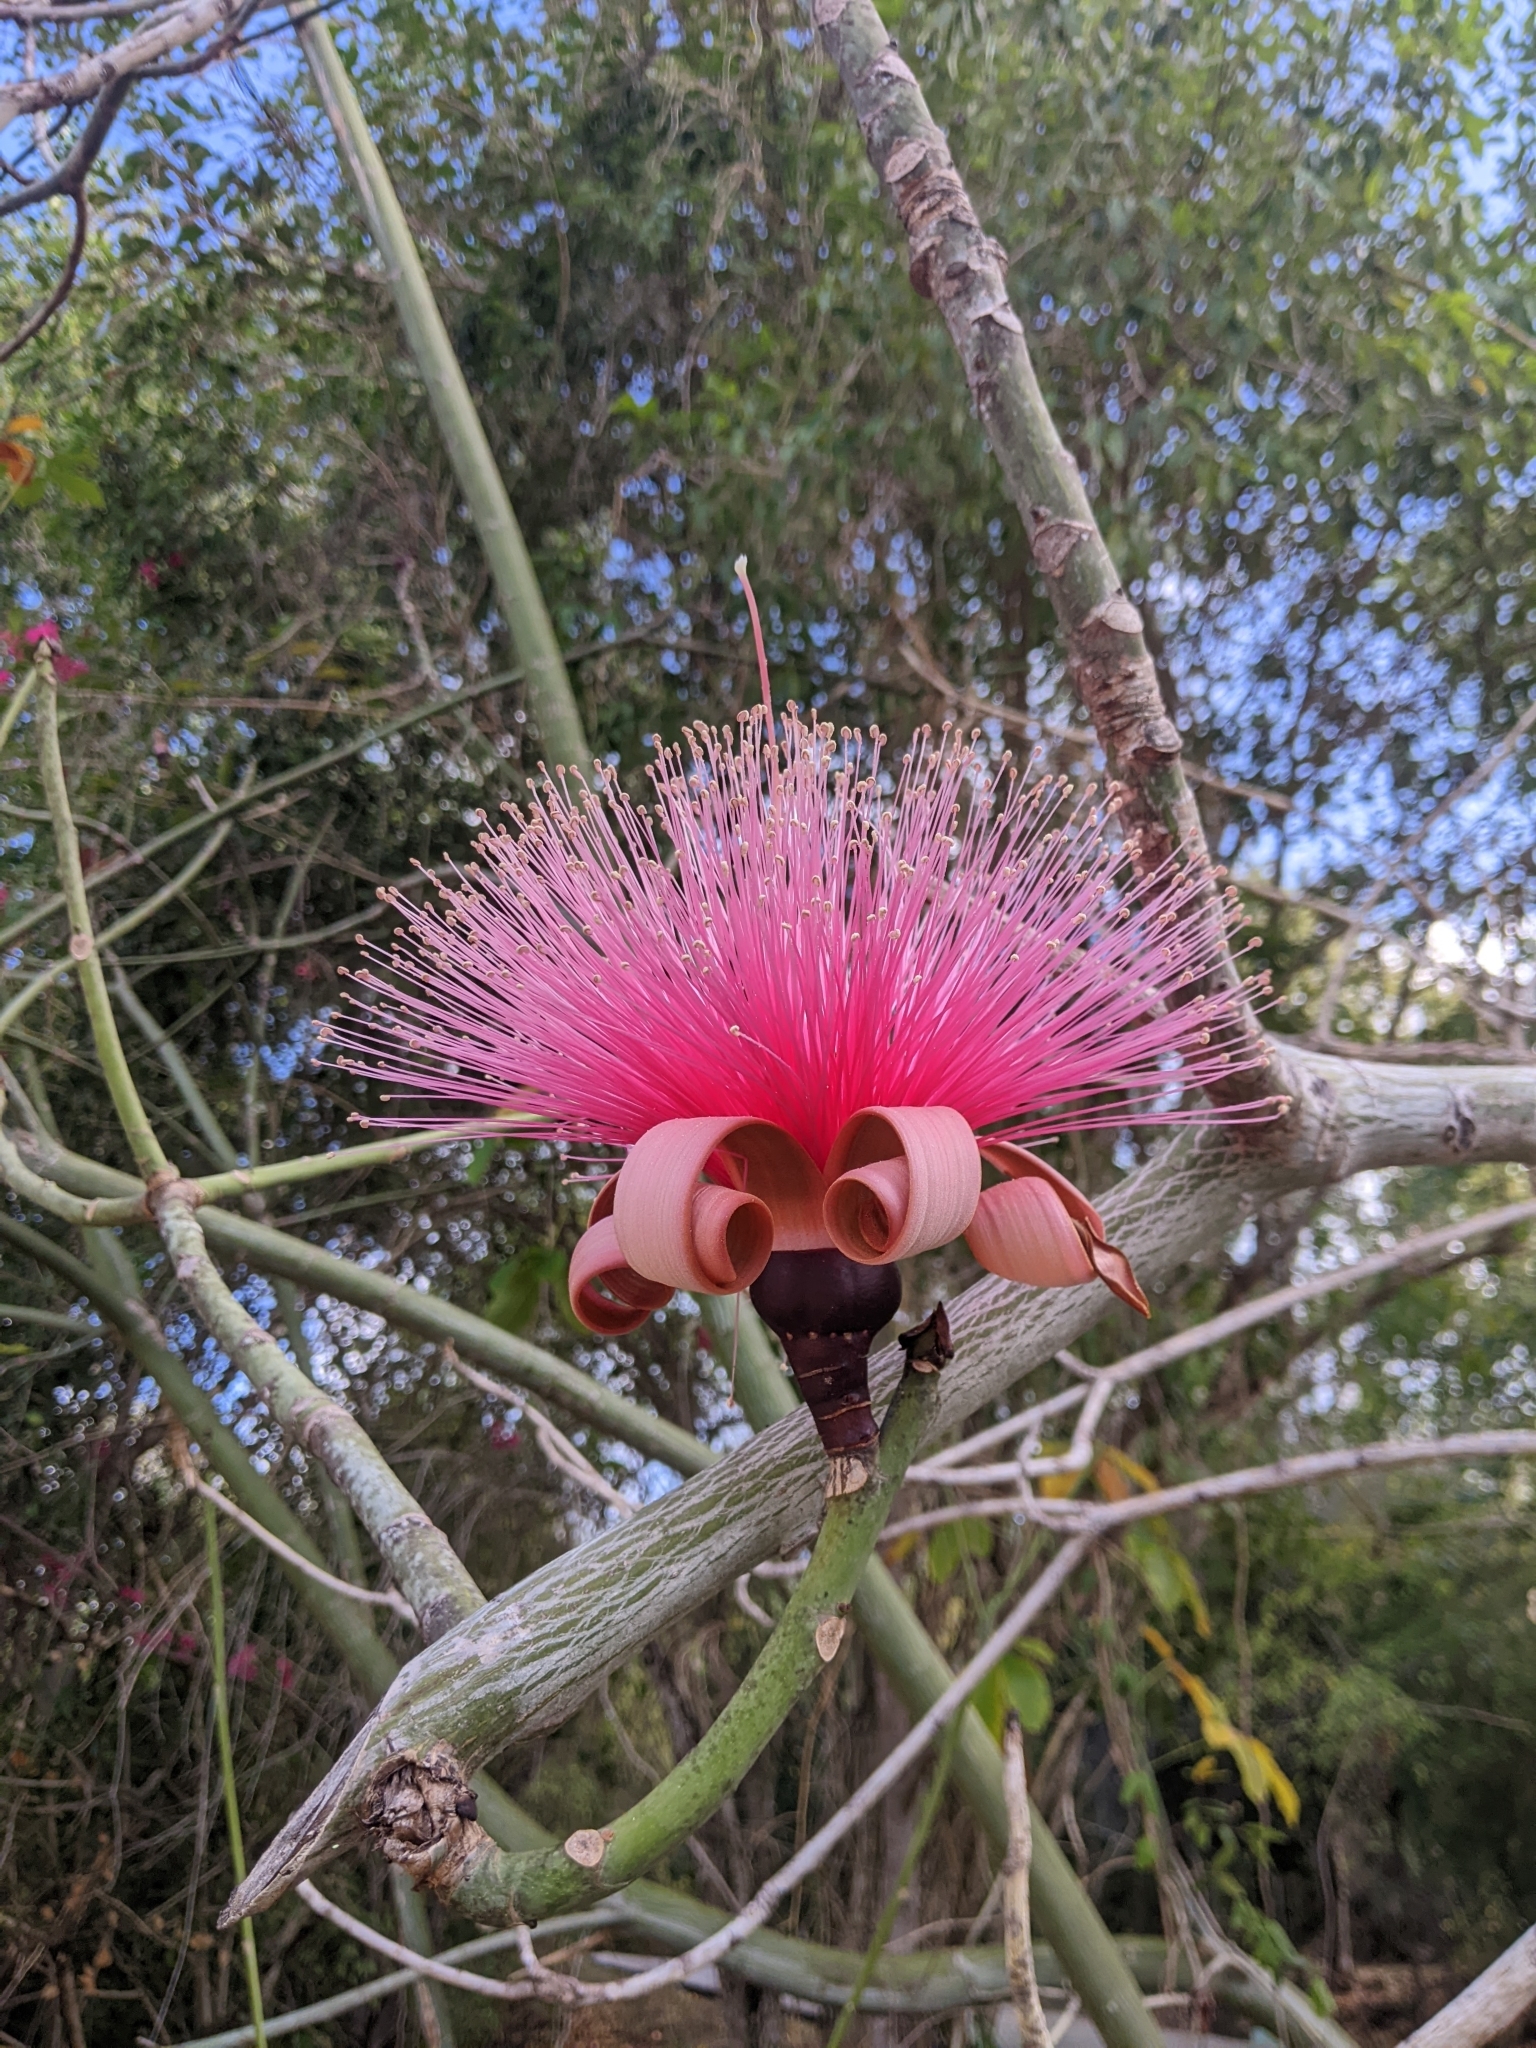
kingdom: Plantae
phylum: Tracheophyta
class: Magnoliopsida
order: Malvales
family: Malvaceae
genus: Pseudobombax
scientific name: Pseudobombax ellipticum
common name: Shaving-brush-tree
